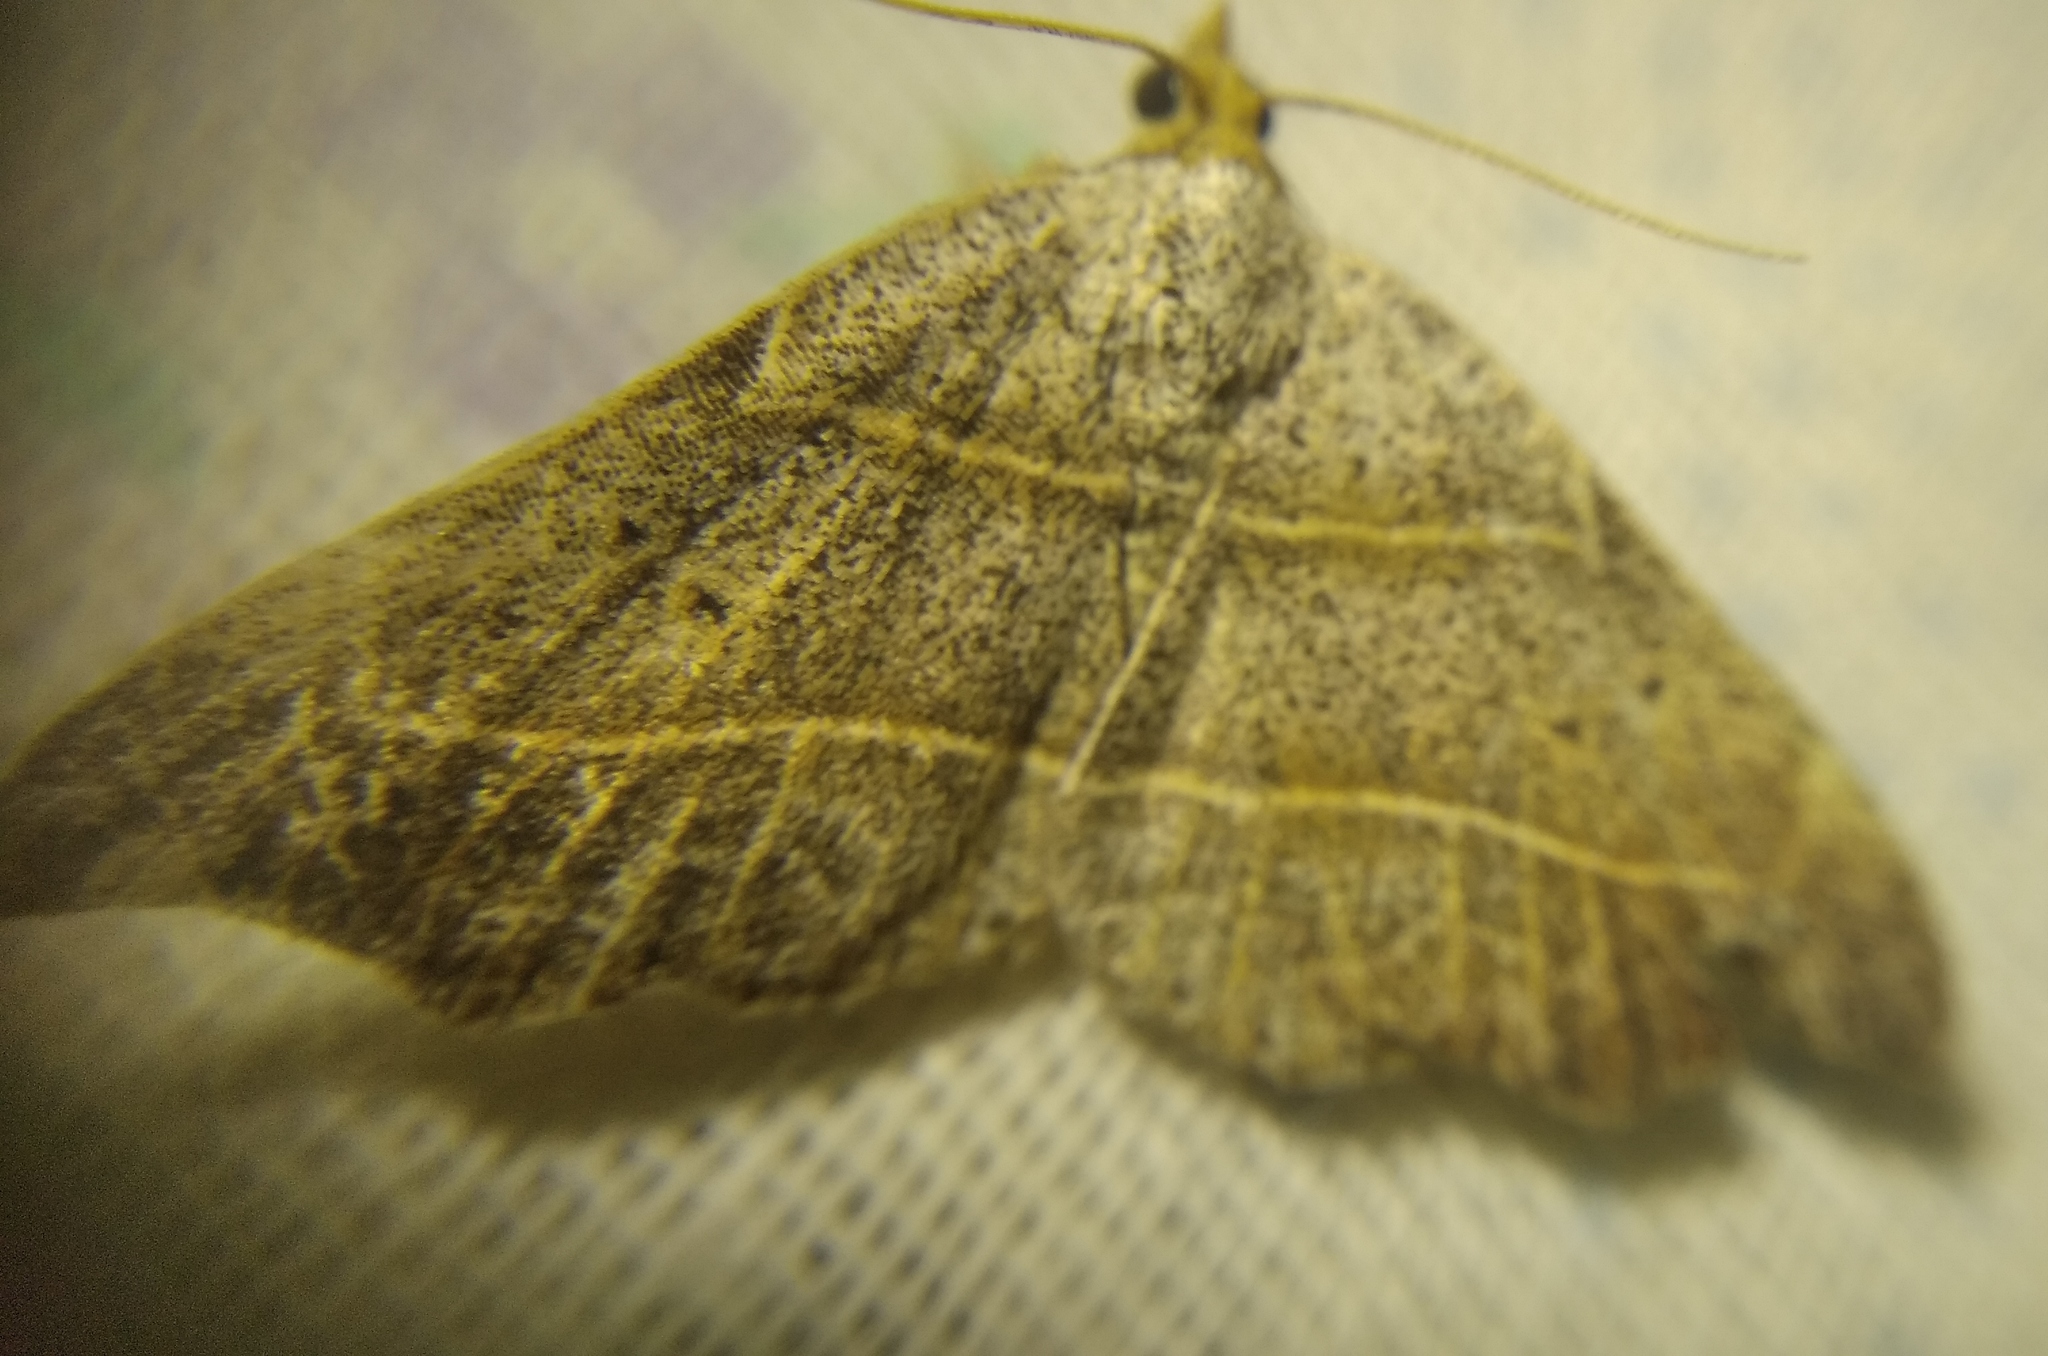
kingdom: Animalia
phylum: Arthropoda
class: Insecta
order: Lepidoptera
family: Erebidae
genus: Laspeyria
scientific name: Laspeyria flexula
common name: Beautiful hook-tip
